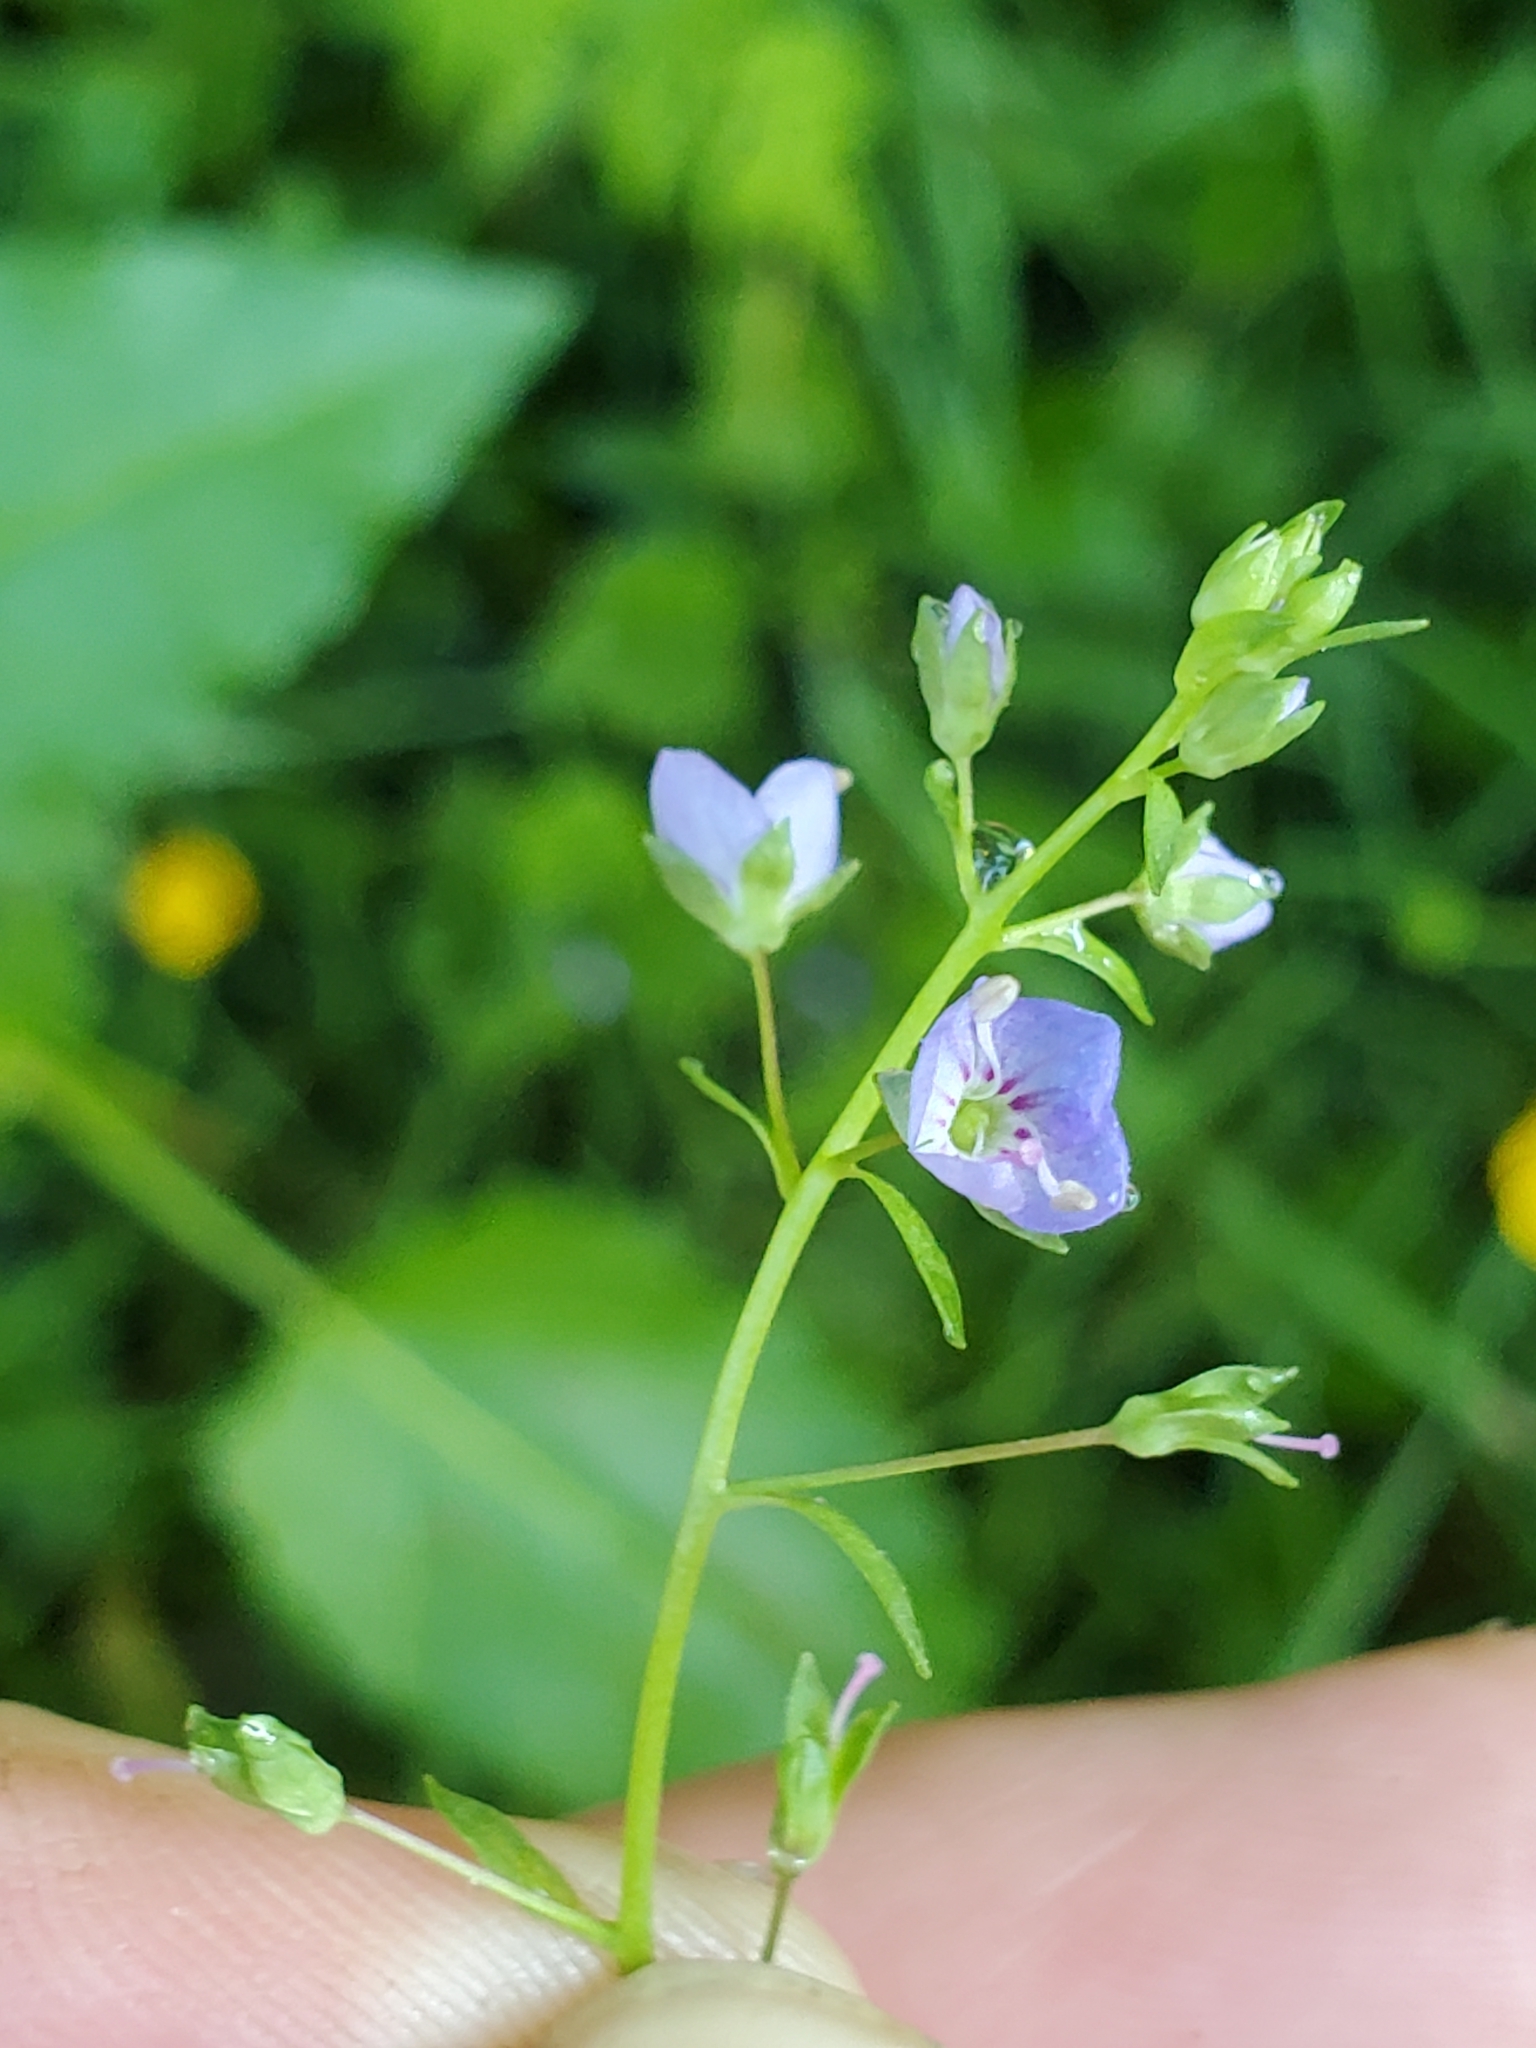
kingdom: Plantae
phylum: Tracheophyta
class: Magnoliopsida
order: Lamiales
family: Plantaginaceae
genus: Veronica
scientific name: Veronica americana
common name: American brooklime
